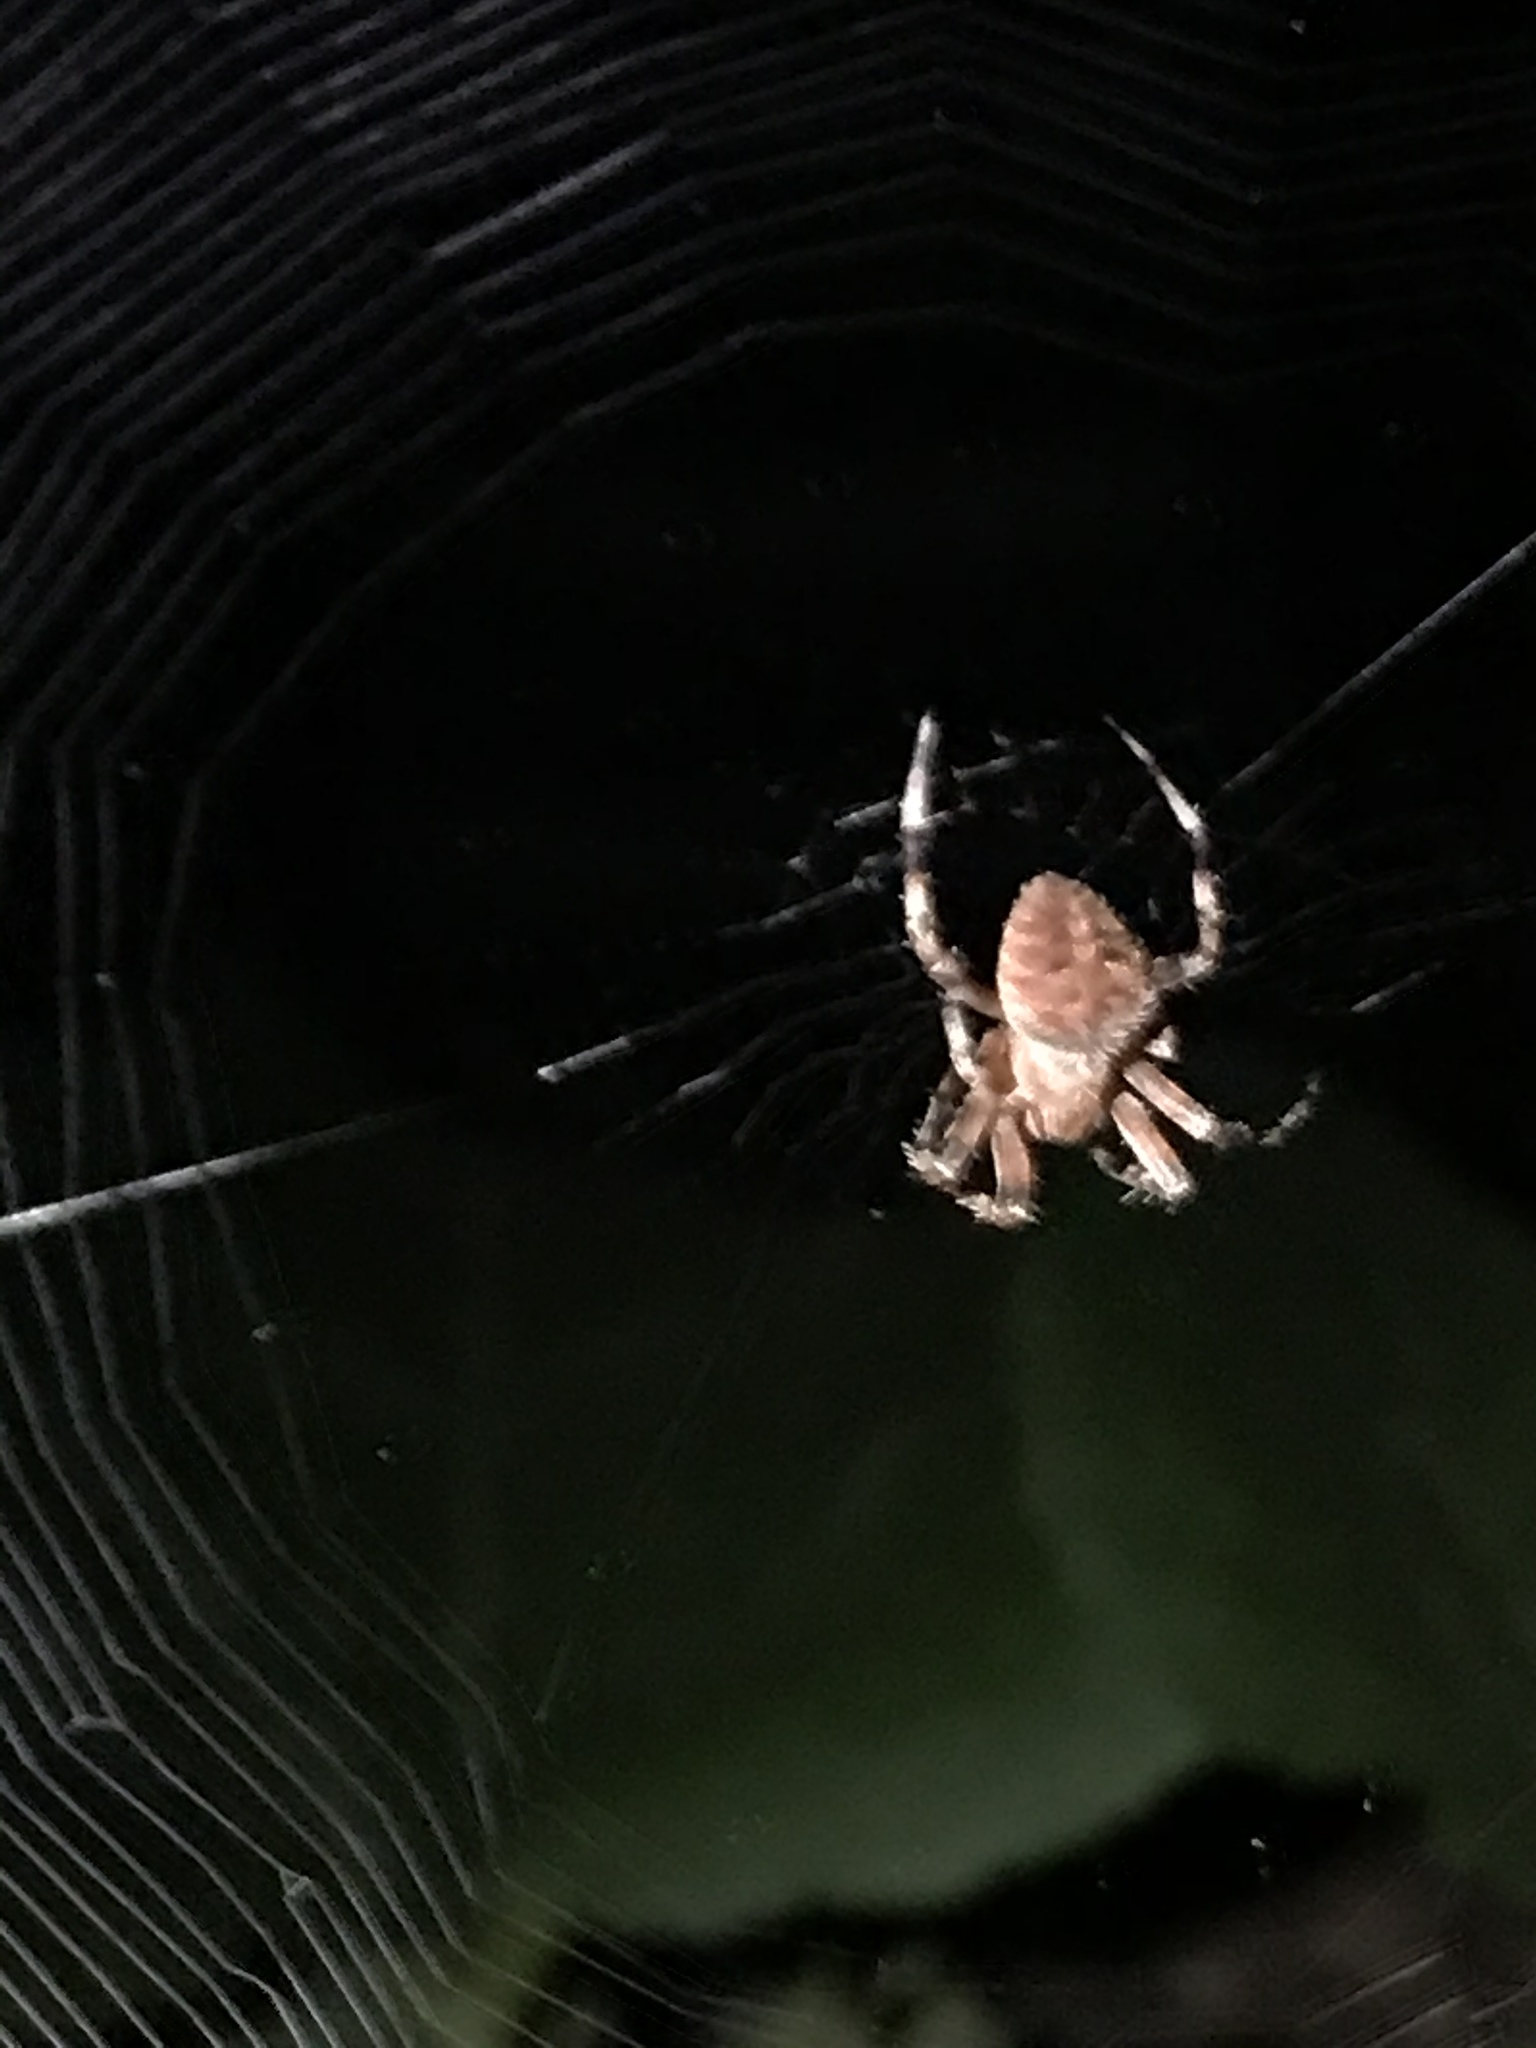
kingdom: Animalia
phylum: Arthropoda
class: Arachnida
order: Araneae
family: Araneidae
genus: Neoscona
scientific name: Neoscona crucifera
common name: Spotted orbweaver
